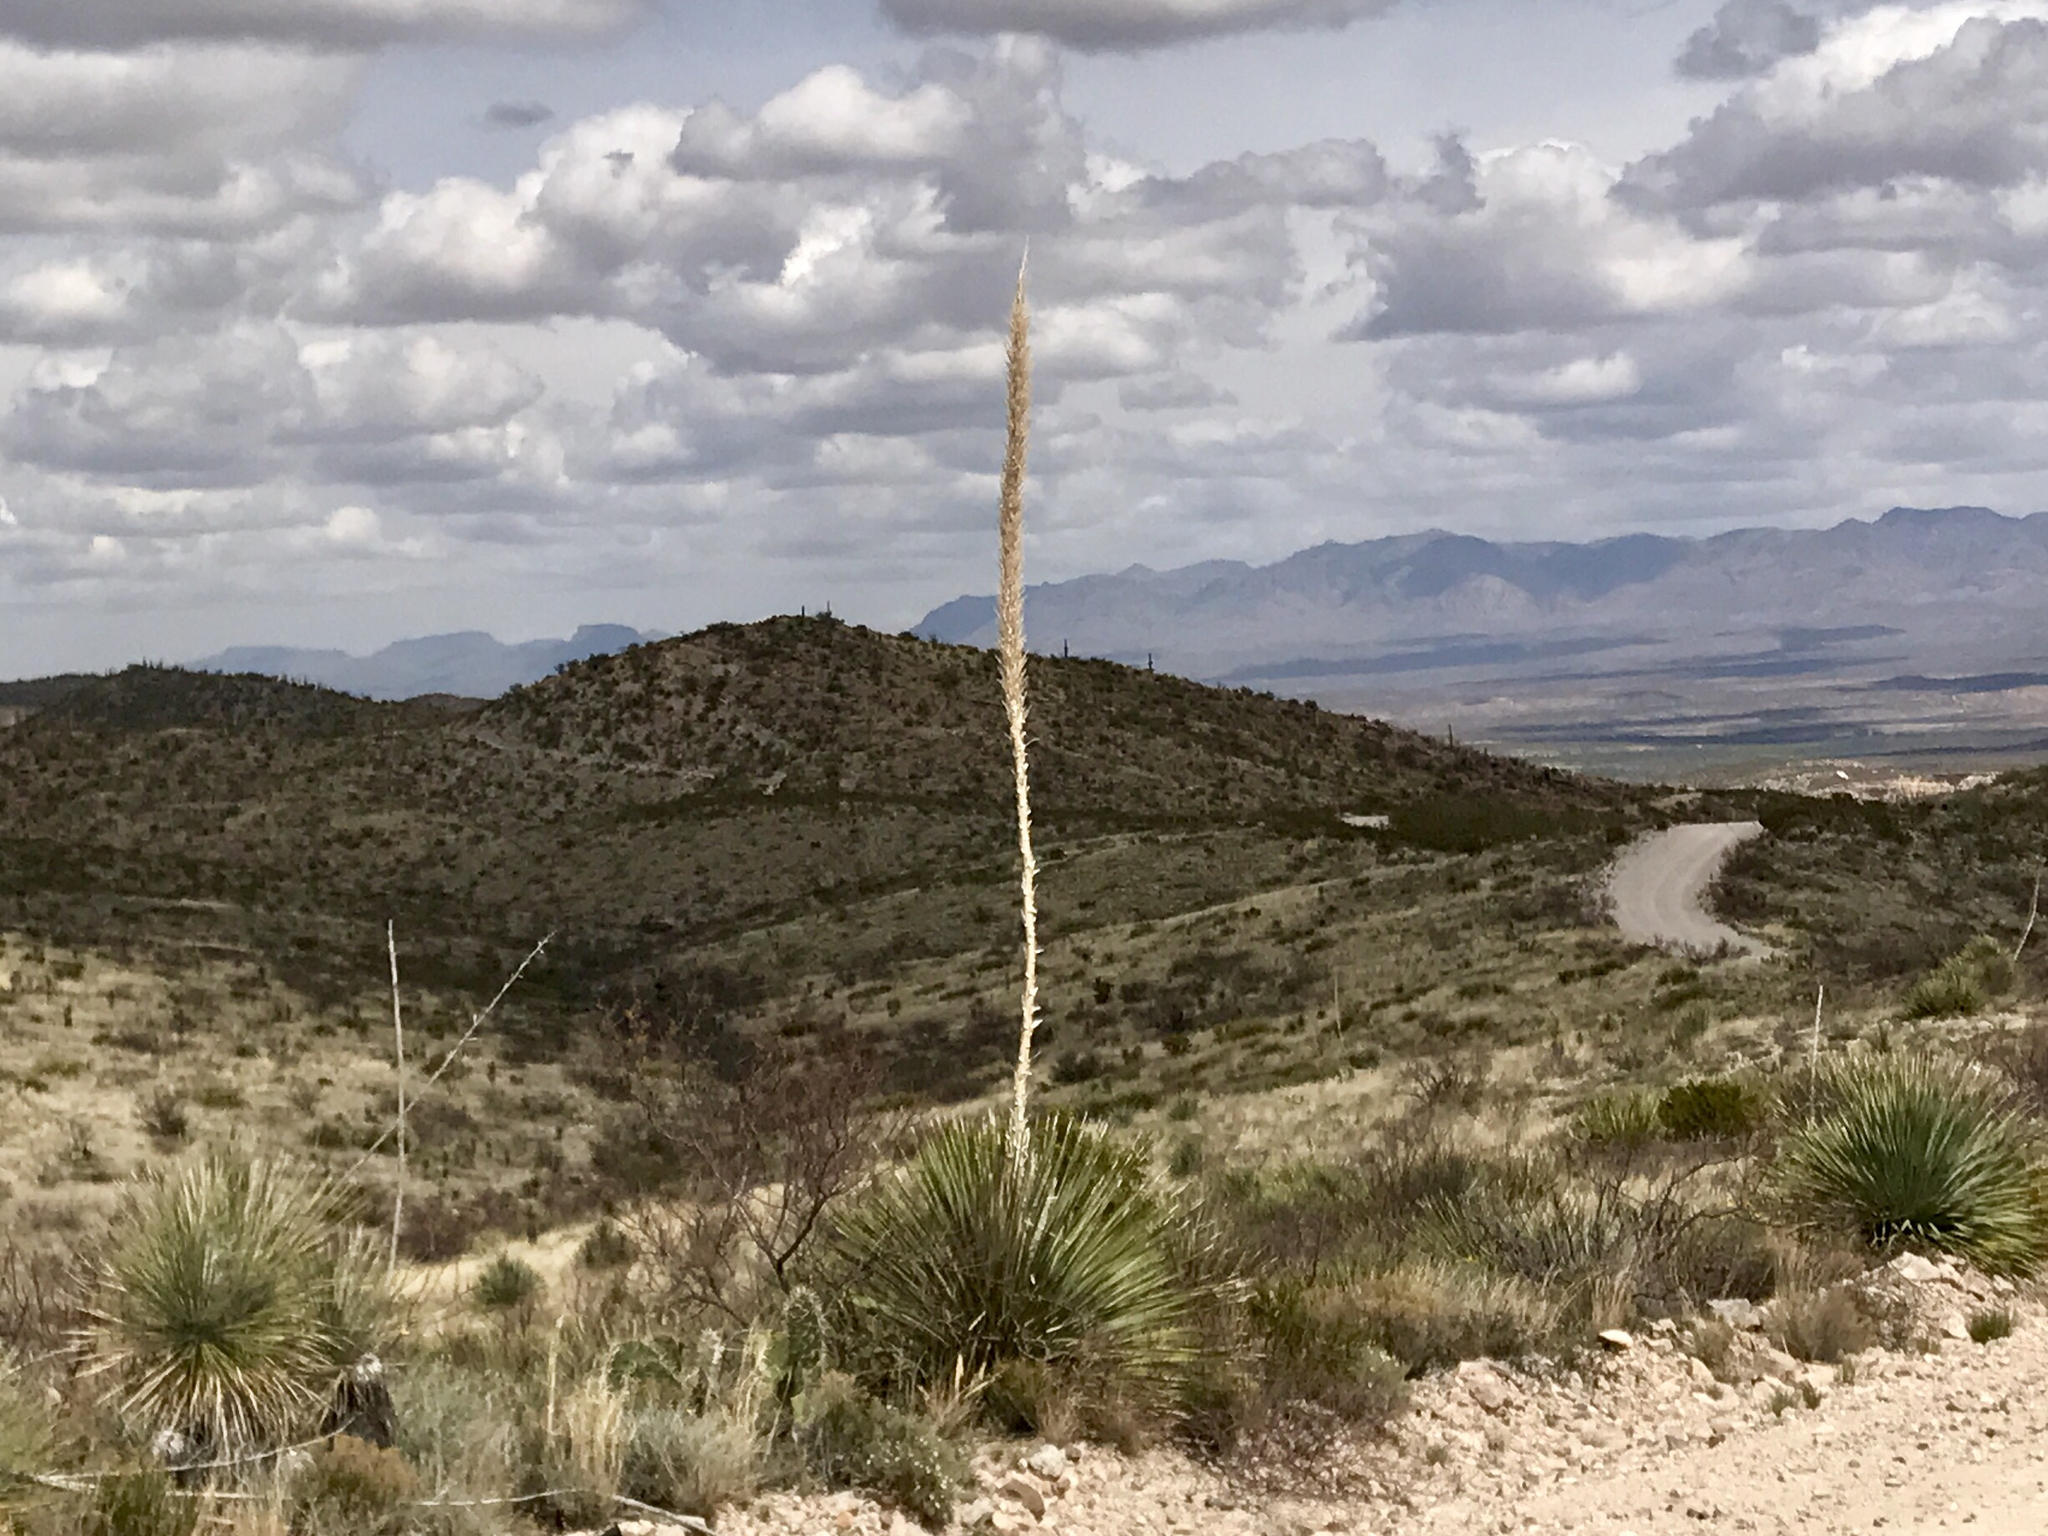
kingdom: Plantae
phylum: Tracheophyta
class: Liliopsida
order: Asparagales
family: Asparagaceae
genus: Dasylirion
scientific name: Dasylirion wheeleri
